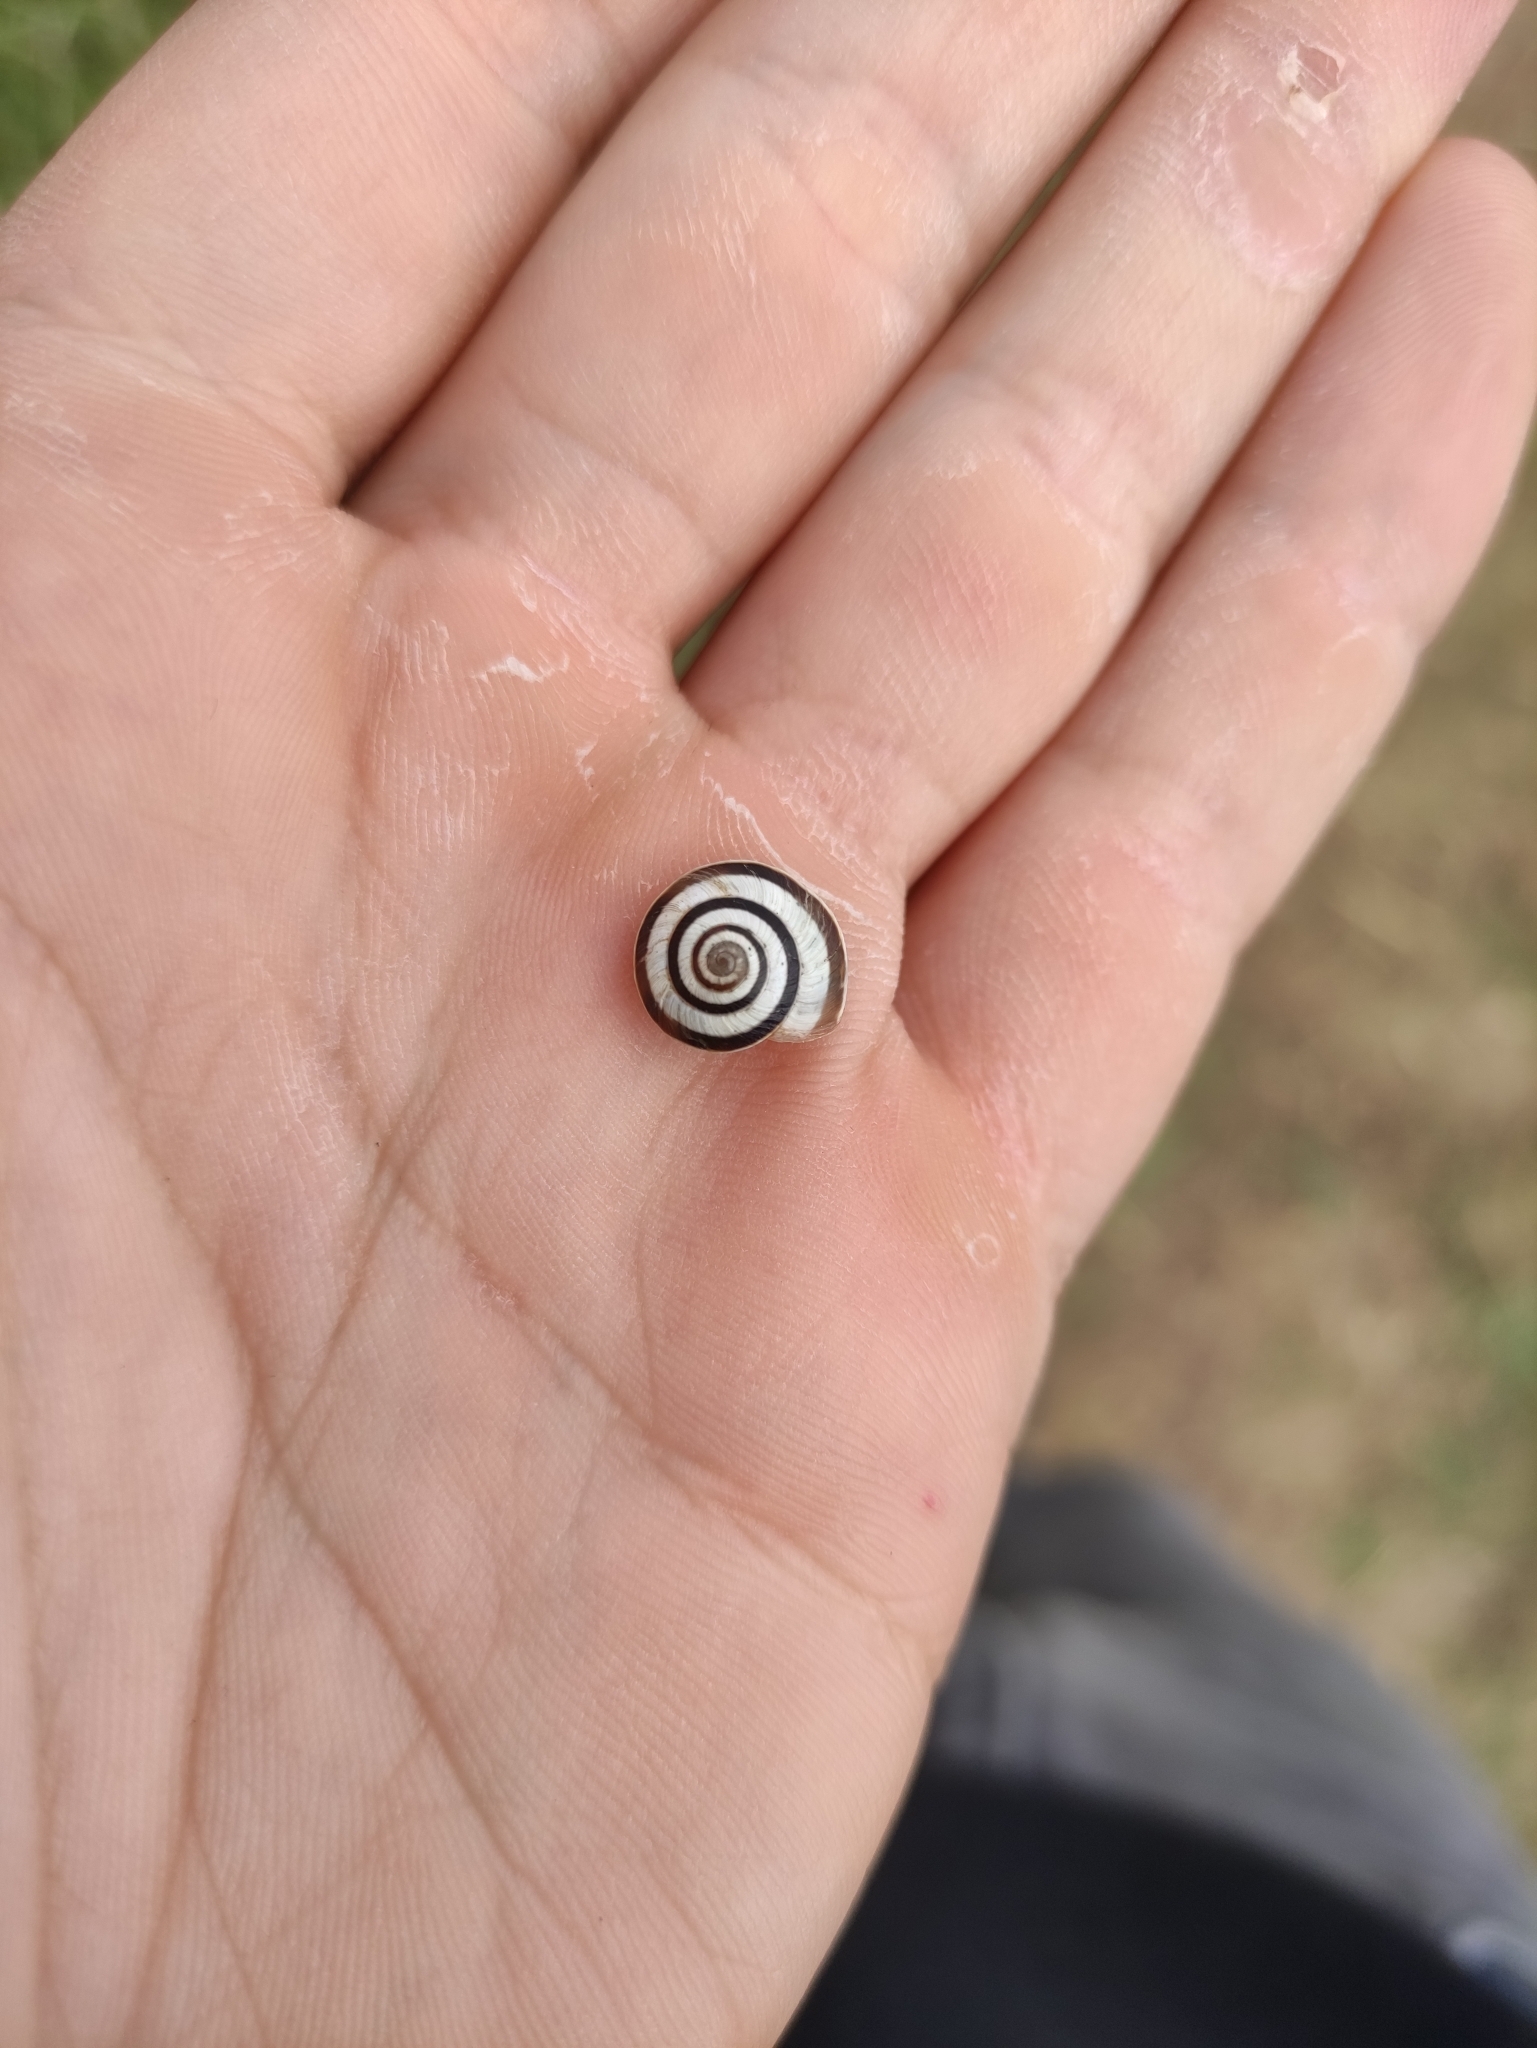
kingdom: Animalia
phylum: Mollusca
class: Gastropoda
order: Stylommatophora
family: Geomitridae
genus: Cernuella
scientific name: Cernuella virgata
